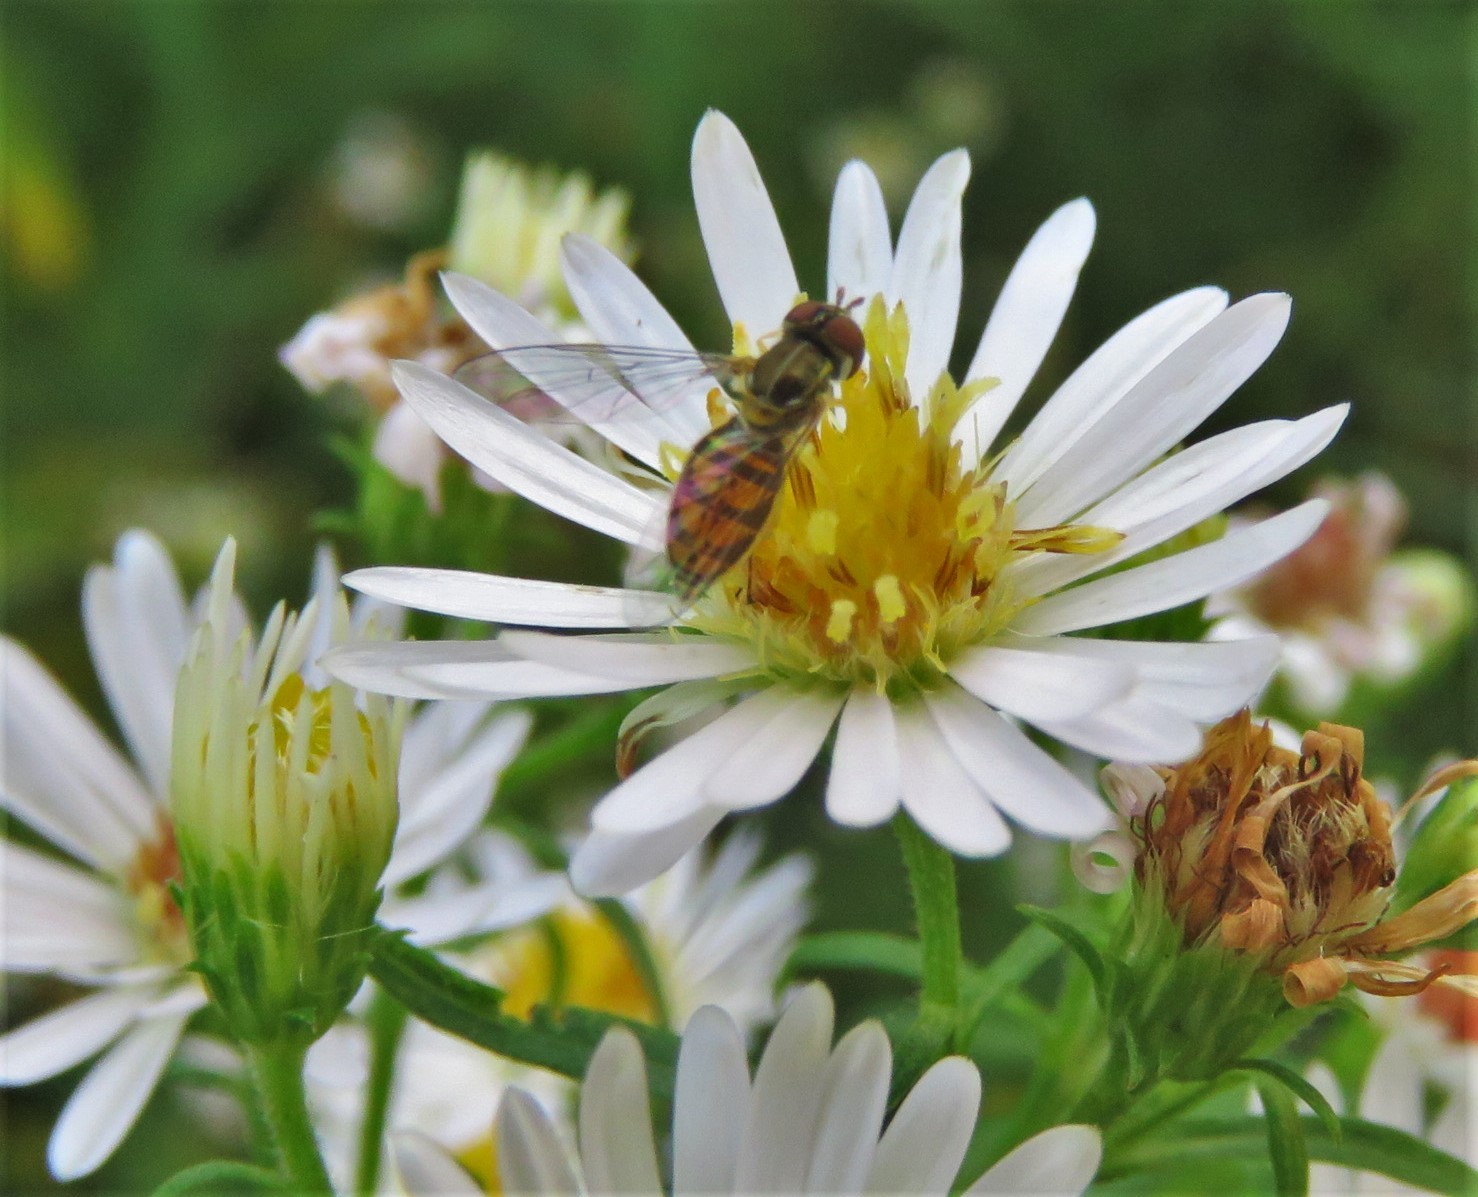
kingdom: Animalia
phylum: Arthropoda
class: Insecta
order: Diptera
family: Syrphidae
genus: Toxomerus
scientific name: Toxomerus marginatus
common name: Syrphid fly
